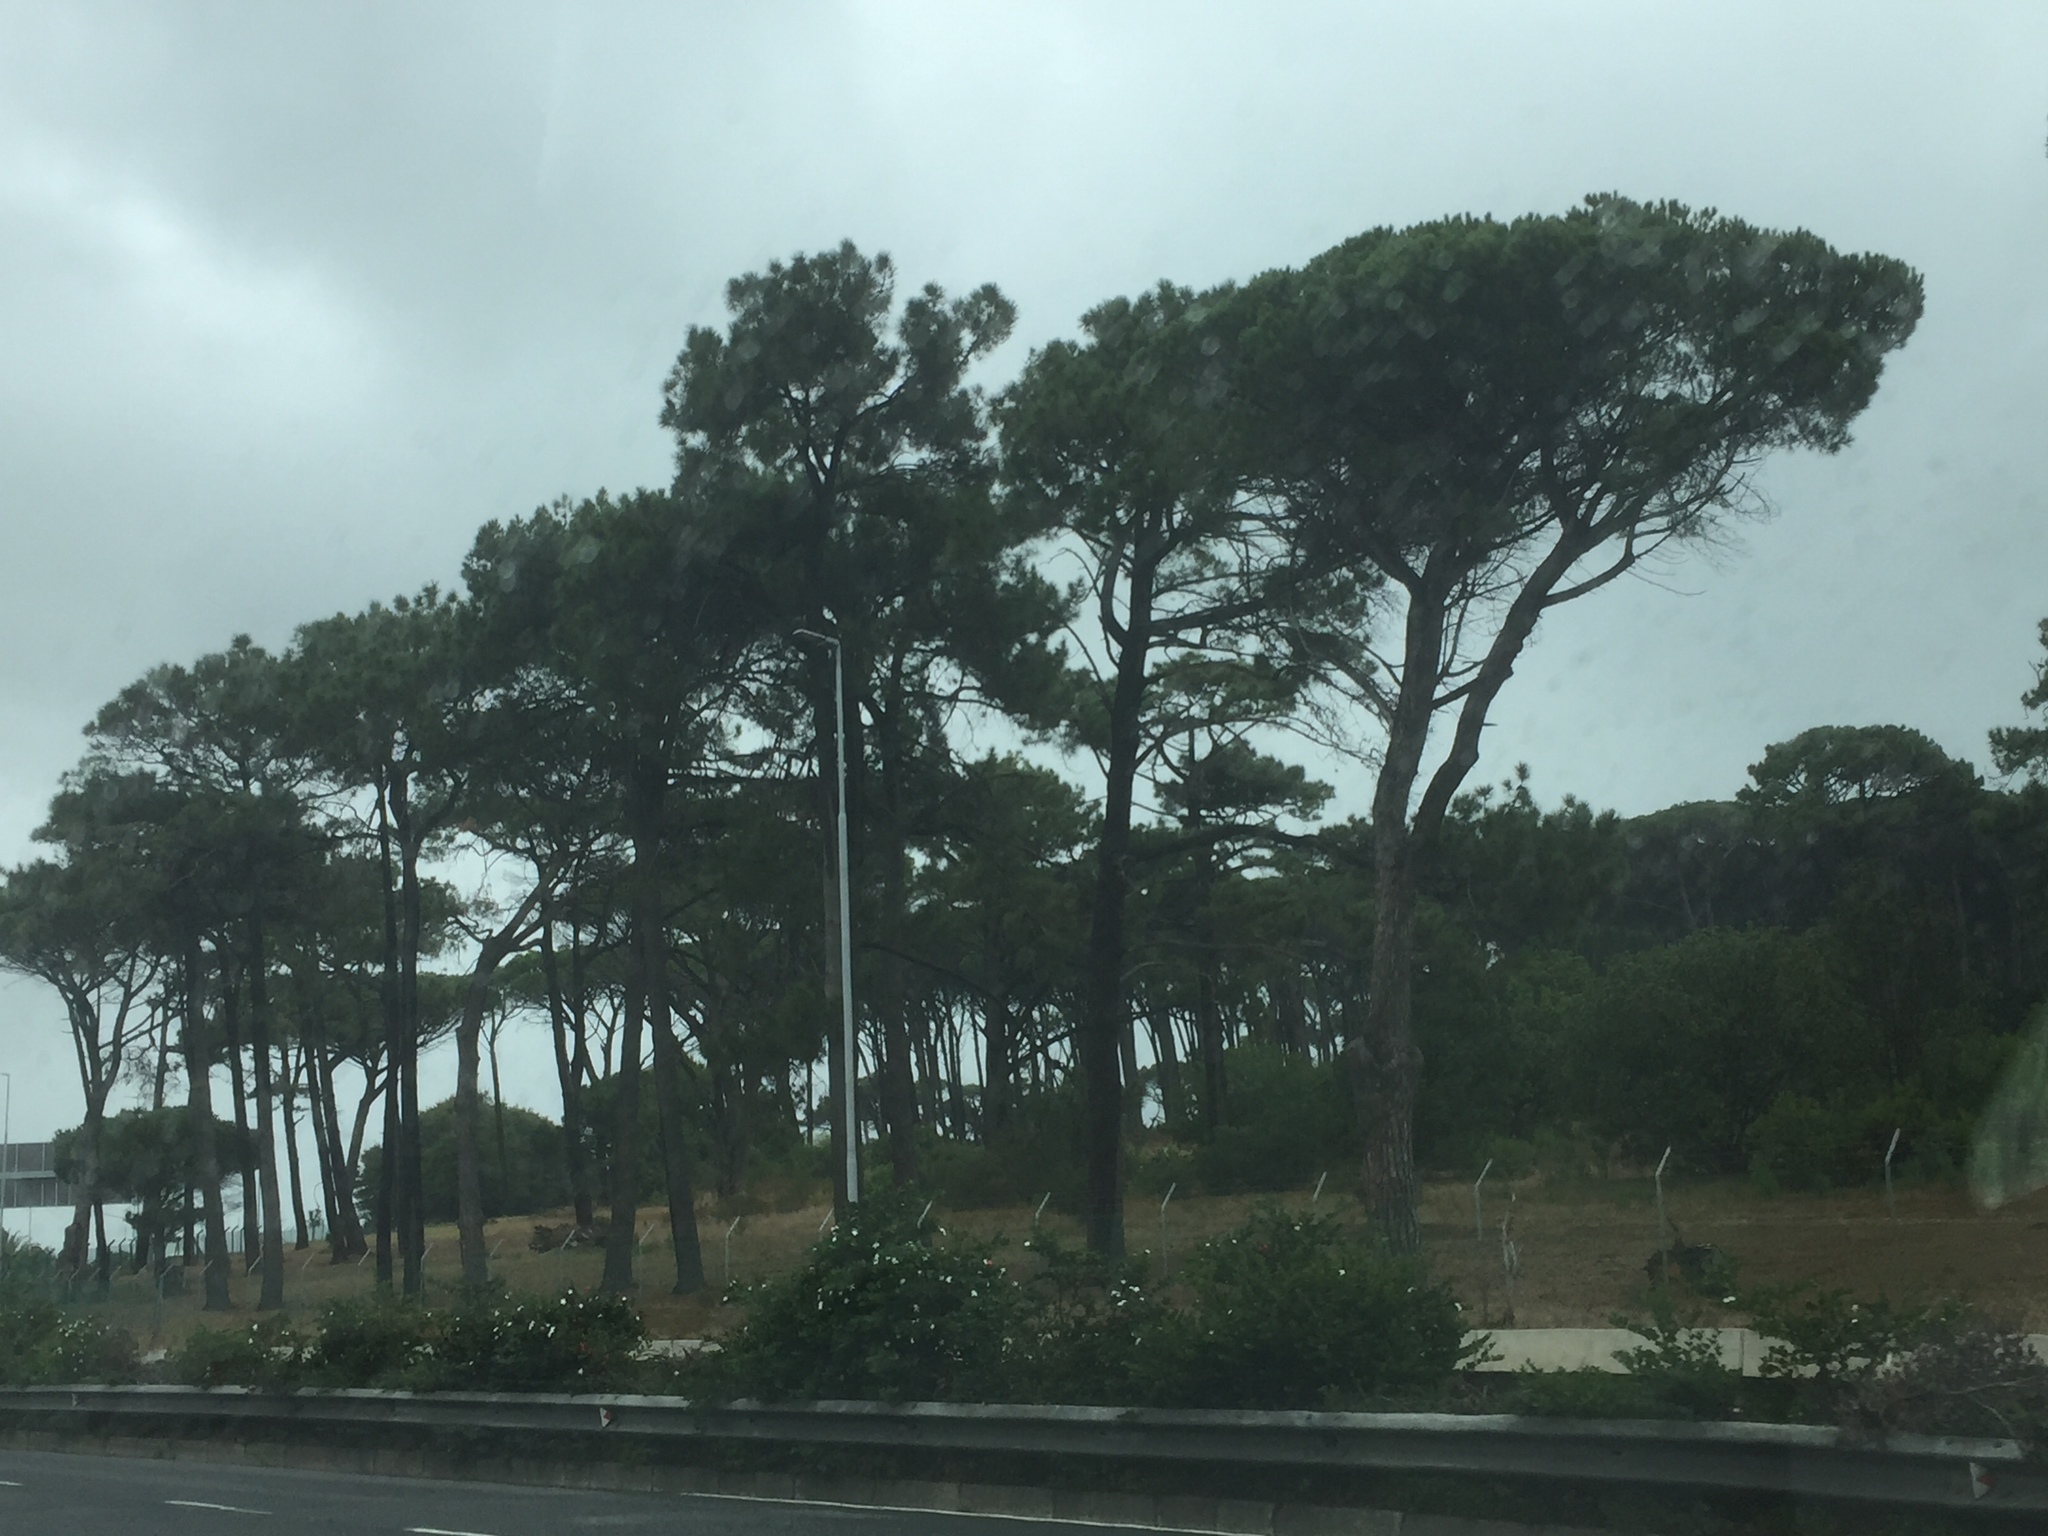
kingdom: Plantae
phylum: Tracheophyta
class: Pinopsida
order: Pinales
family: Pinaceae
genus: Pinus
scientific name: Pinus pinaster
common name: Maritime pine
